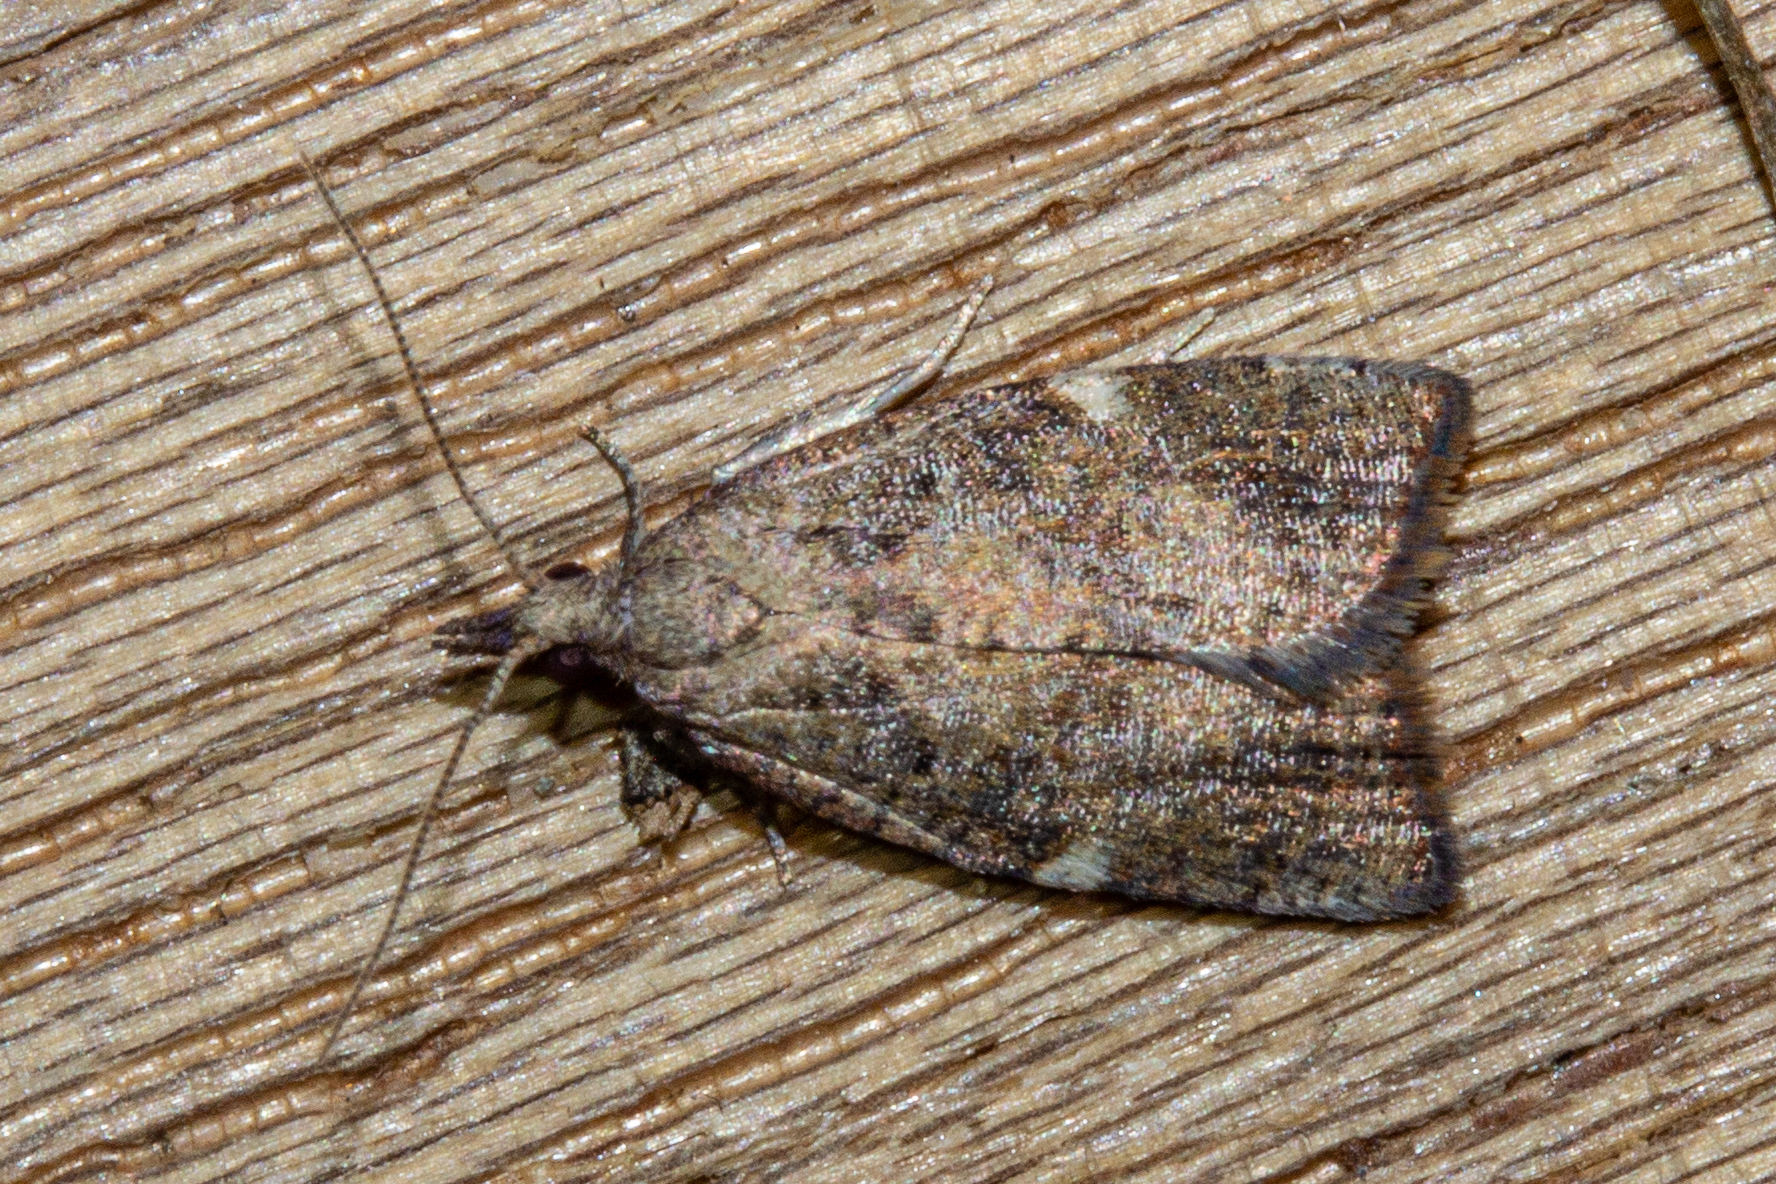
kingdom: Animalia
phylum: Arthropoda
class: Insecta
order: Lepidoptera
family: Tortricidae
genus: Catamacta
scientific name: Catamacta gavisana
